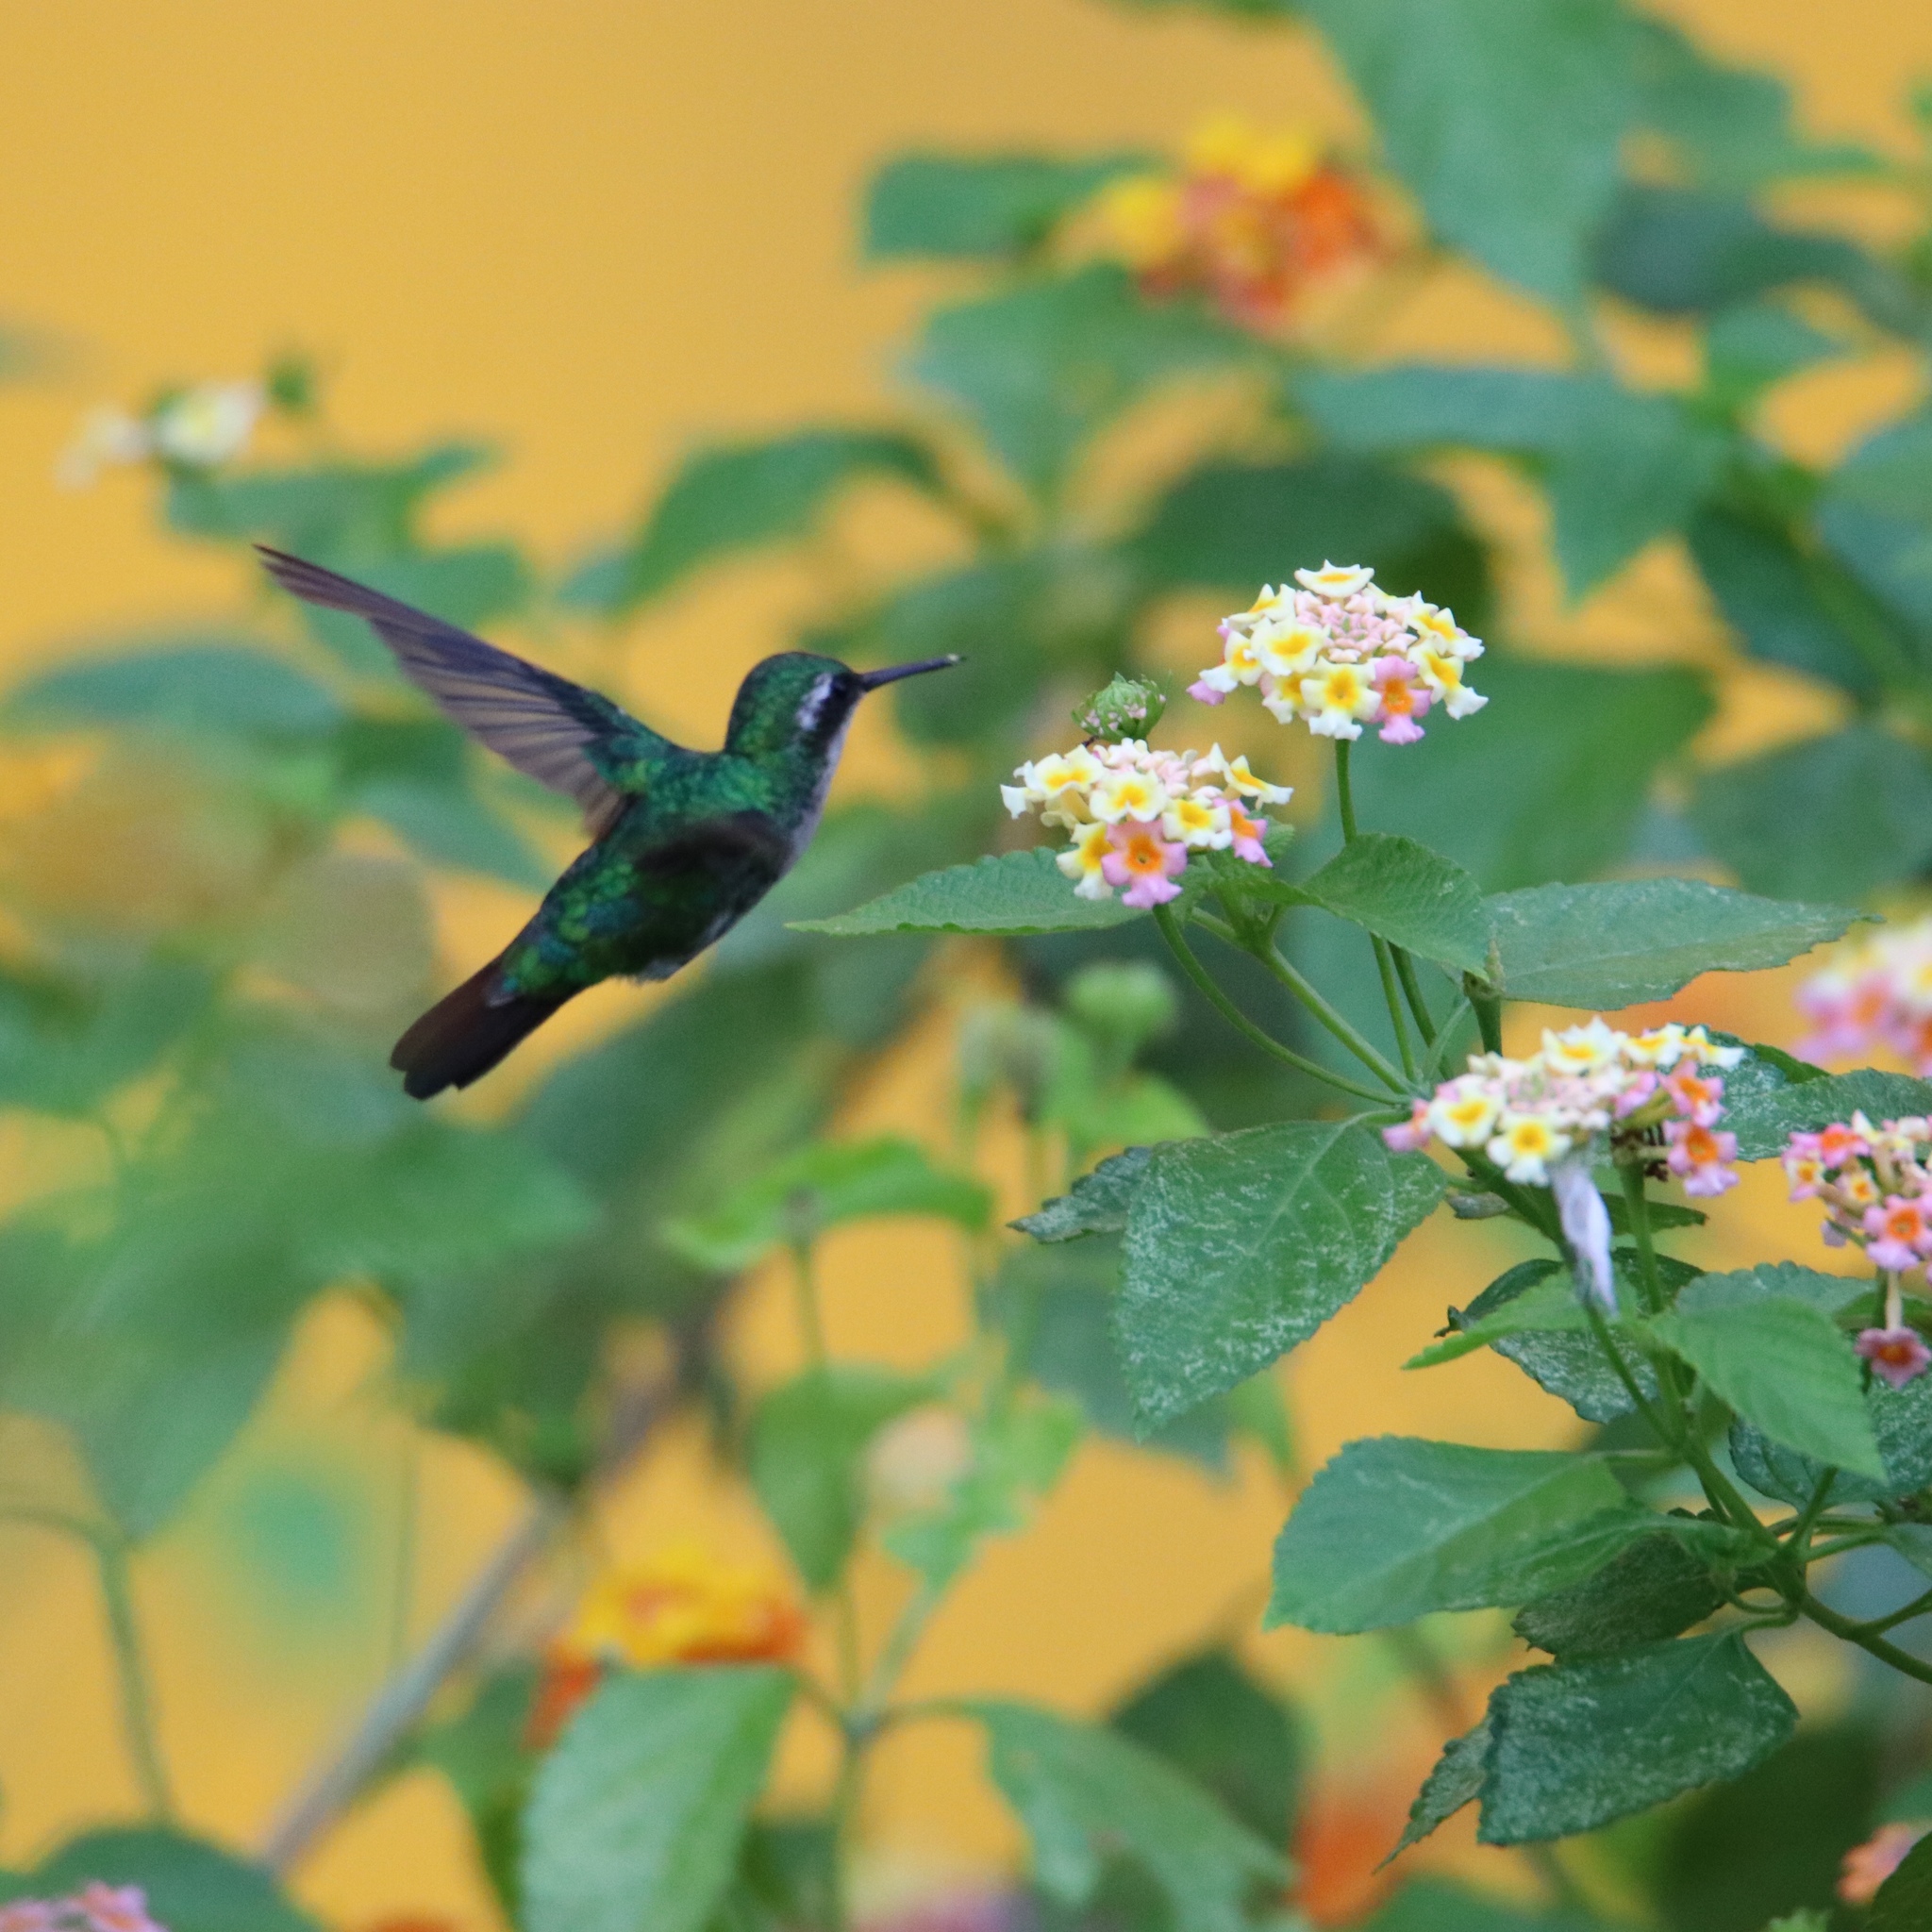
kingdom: Animalia
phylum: Chordata
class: Aves
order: Apodiformes
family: Trochilidae
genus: Chlorostilbon
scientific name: Chlorostilbon assimilis
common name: Garden emerald
